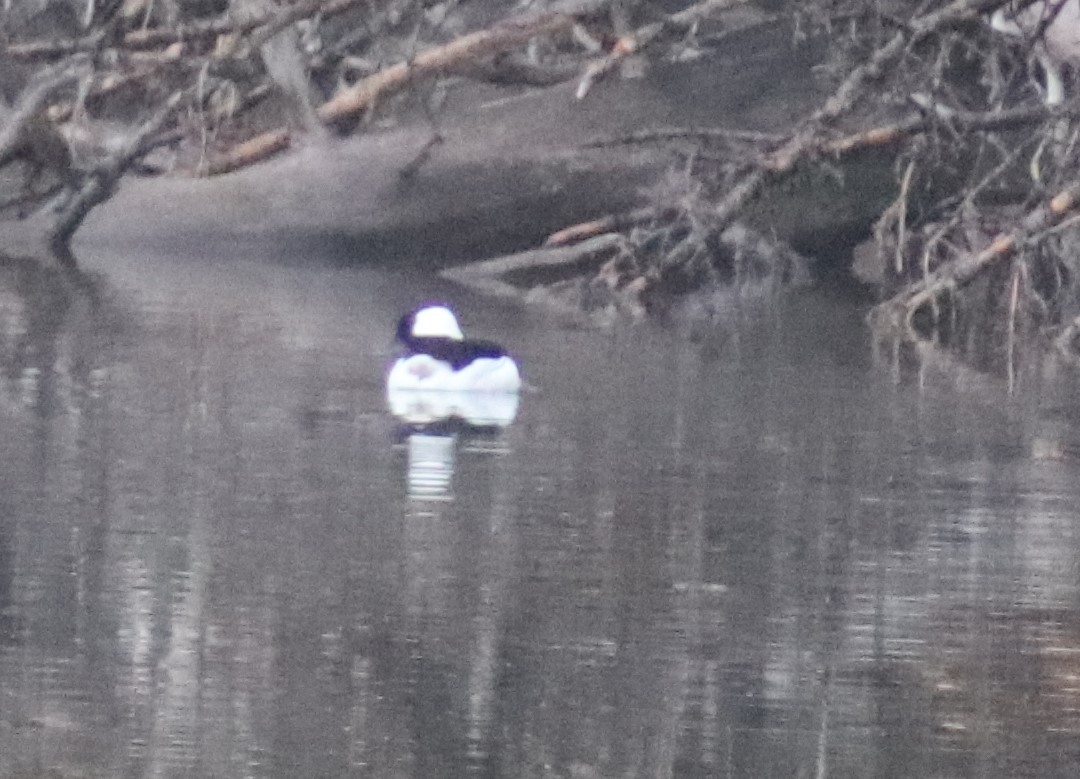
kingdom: Animalia
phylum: Chordata
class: Aves
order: Anseriformes
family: Anatidae
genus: Bucephala
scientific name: Bucephala albeola
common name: Bufflehead
